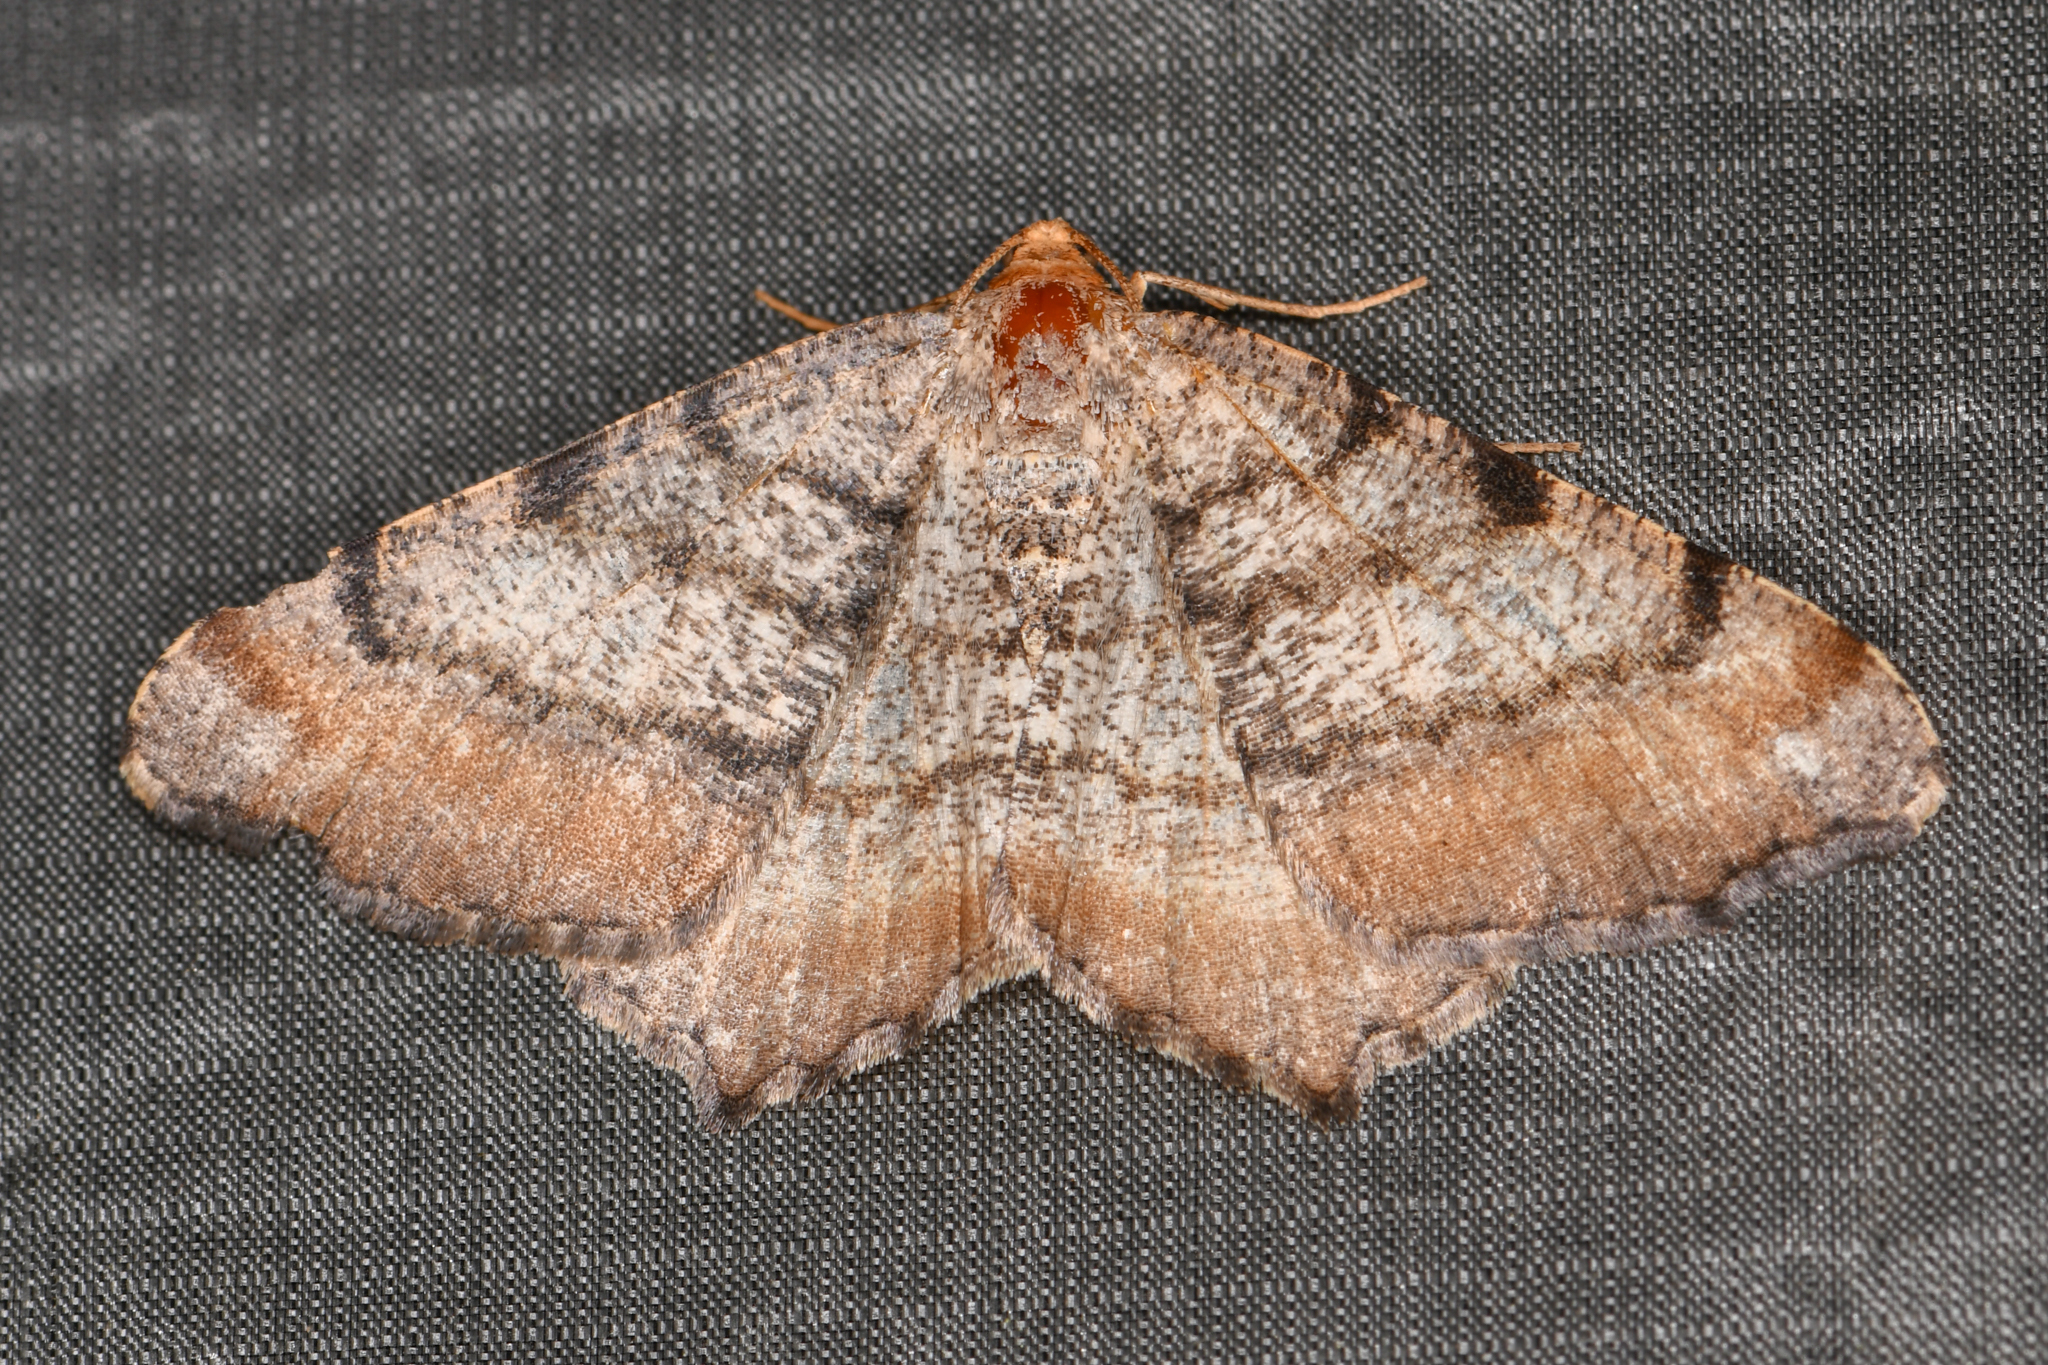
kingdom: Animalia
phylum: Arthropoda
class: Insecta
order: Lepidoptera
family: Geometridae
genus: Macaria
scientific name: Macaria adonis
